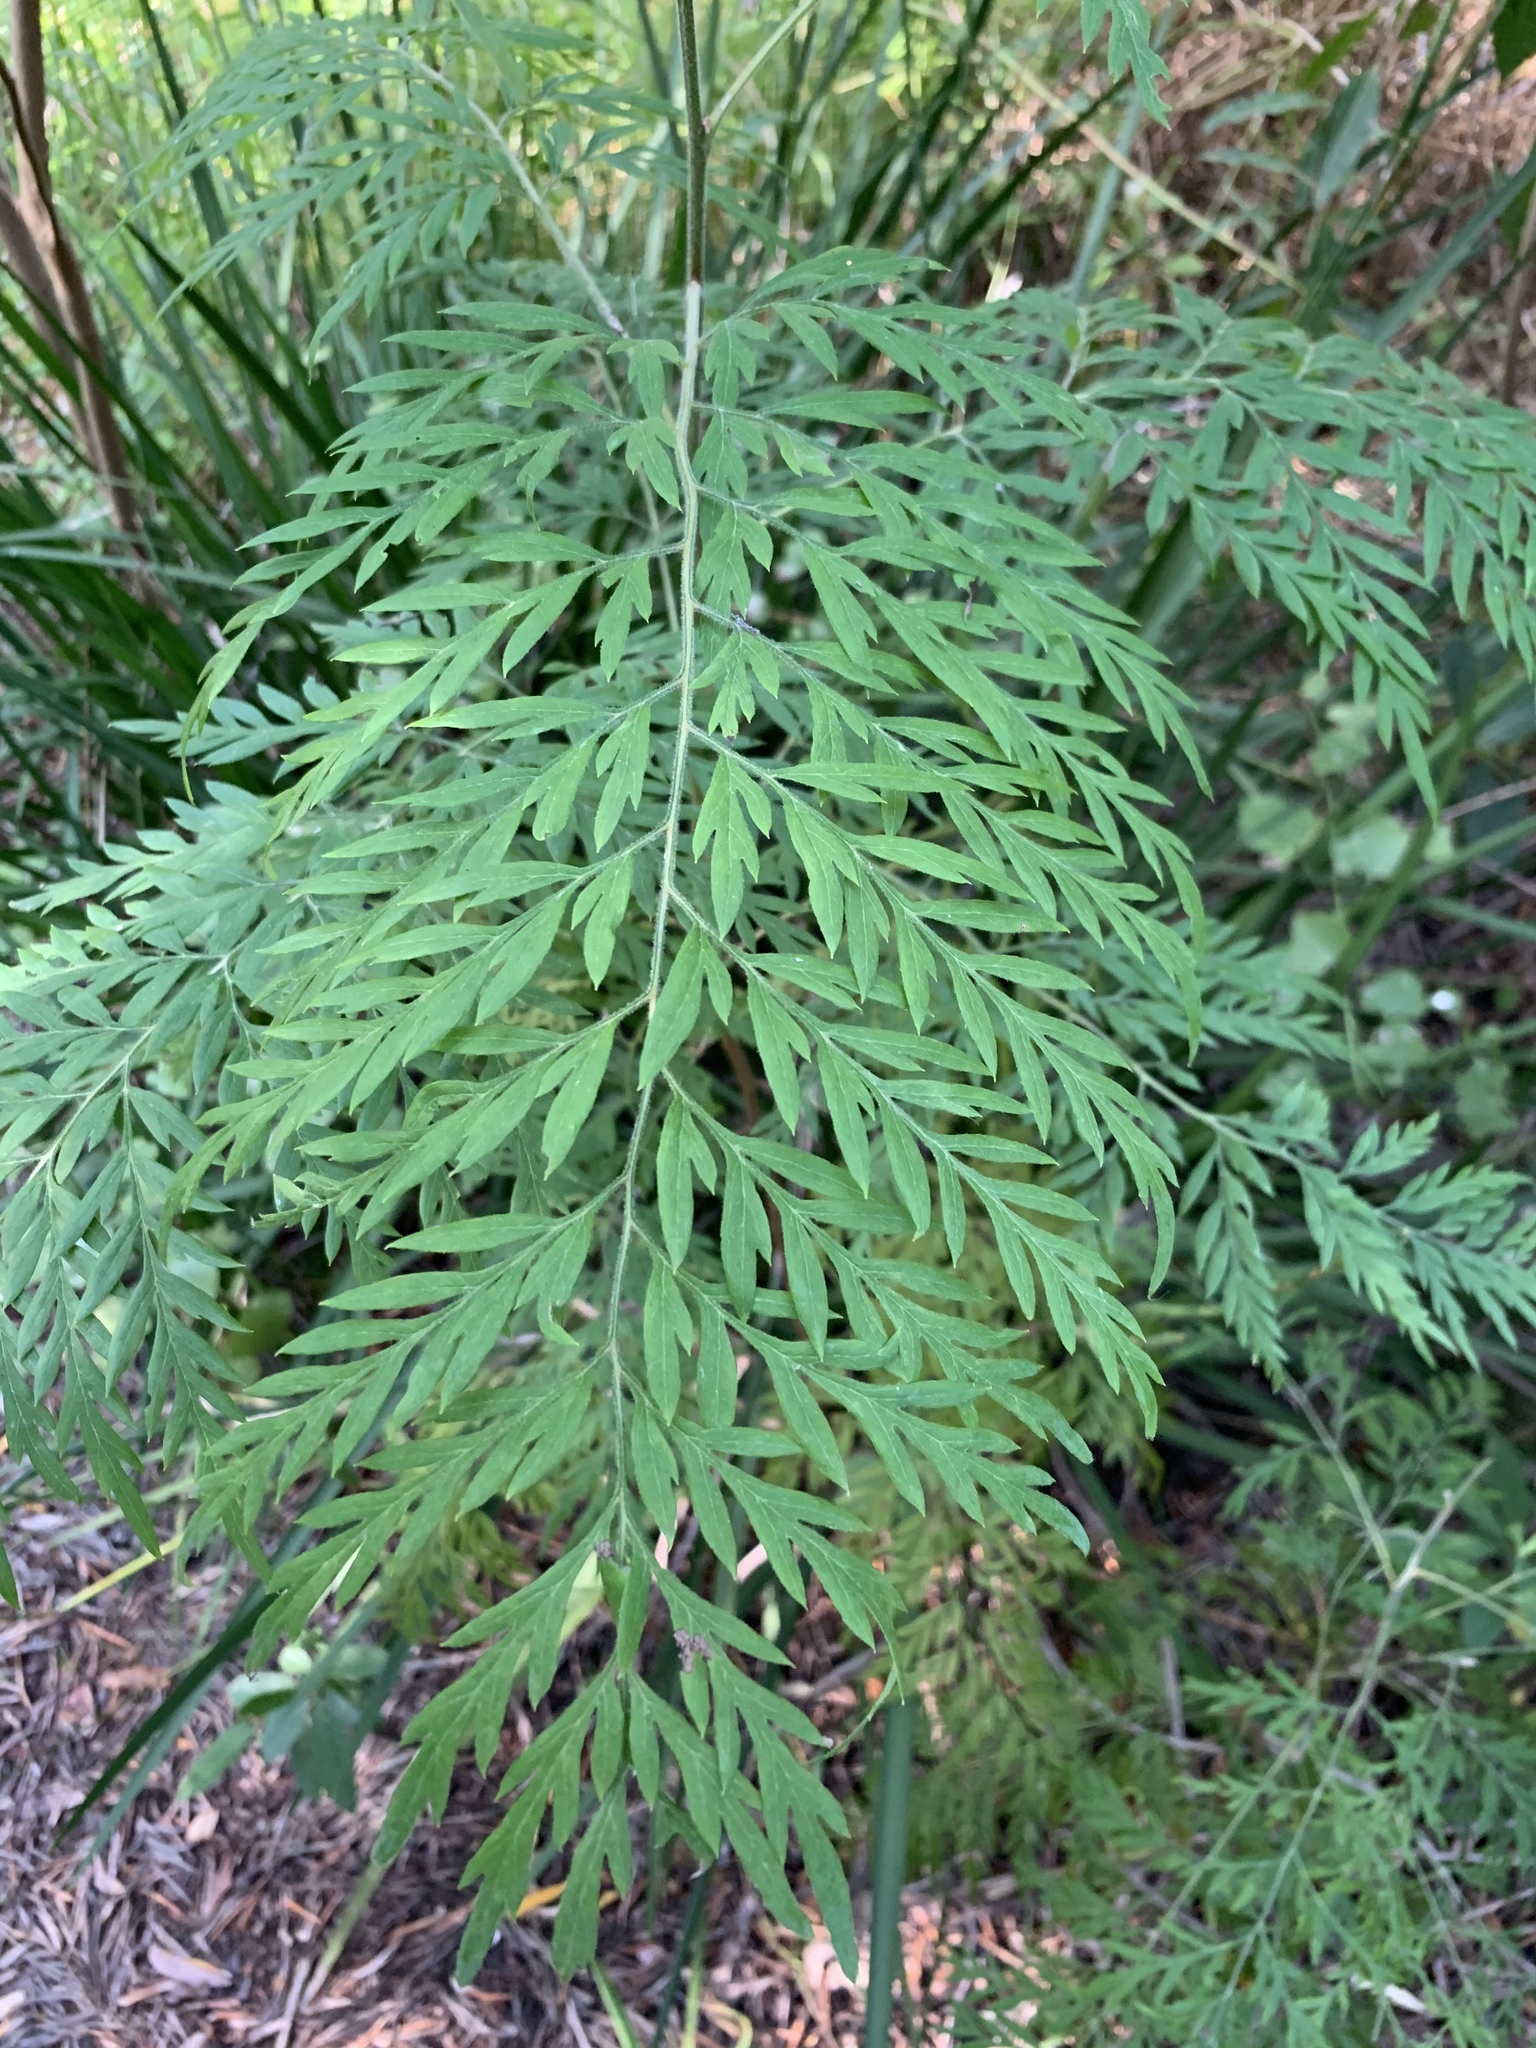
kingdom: Plantae
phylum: Tracheophyta
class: Magnoliopsida
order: Proteales
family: Proteaceae
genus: Grevillea
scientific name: Grevillea robusta
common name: Silkoak
